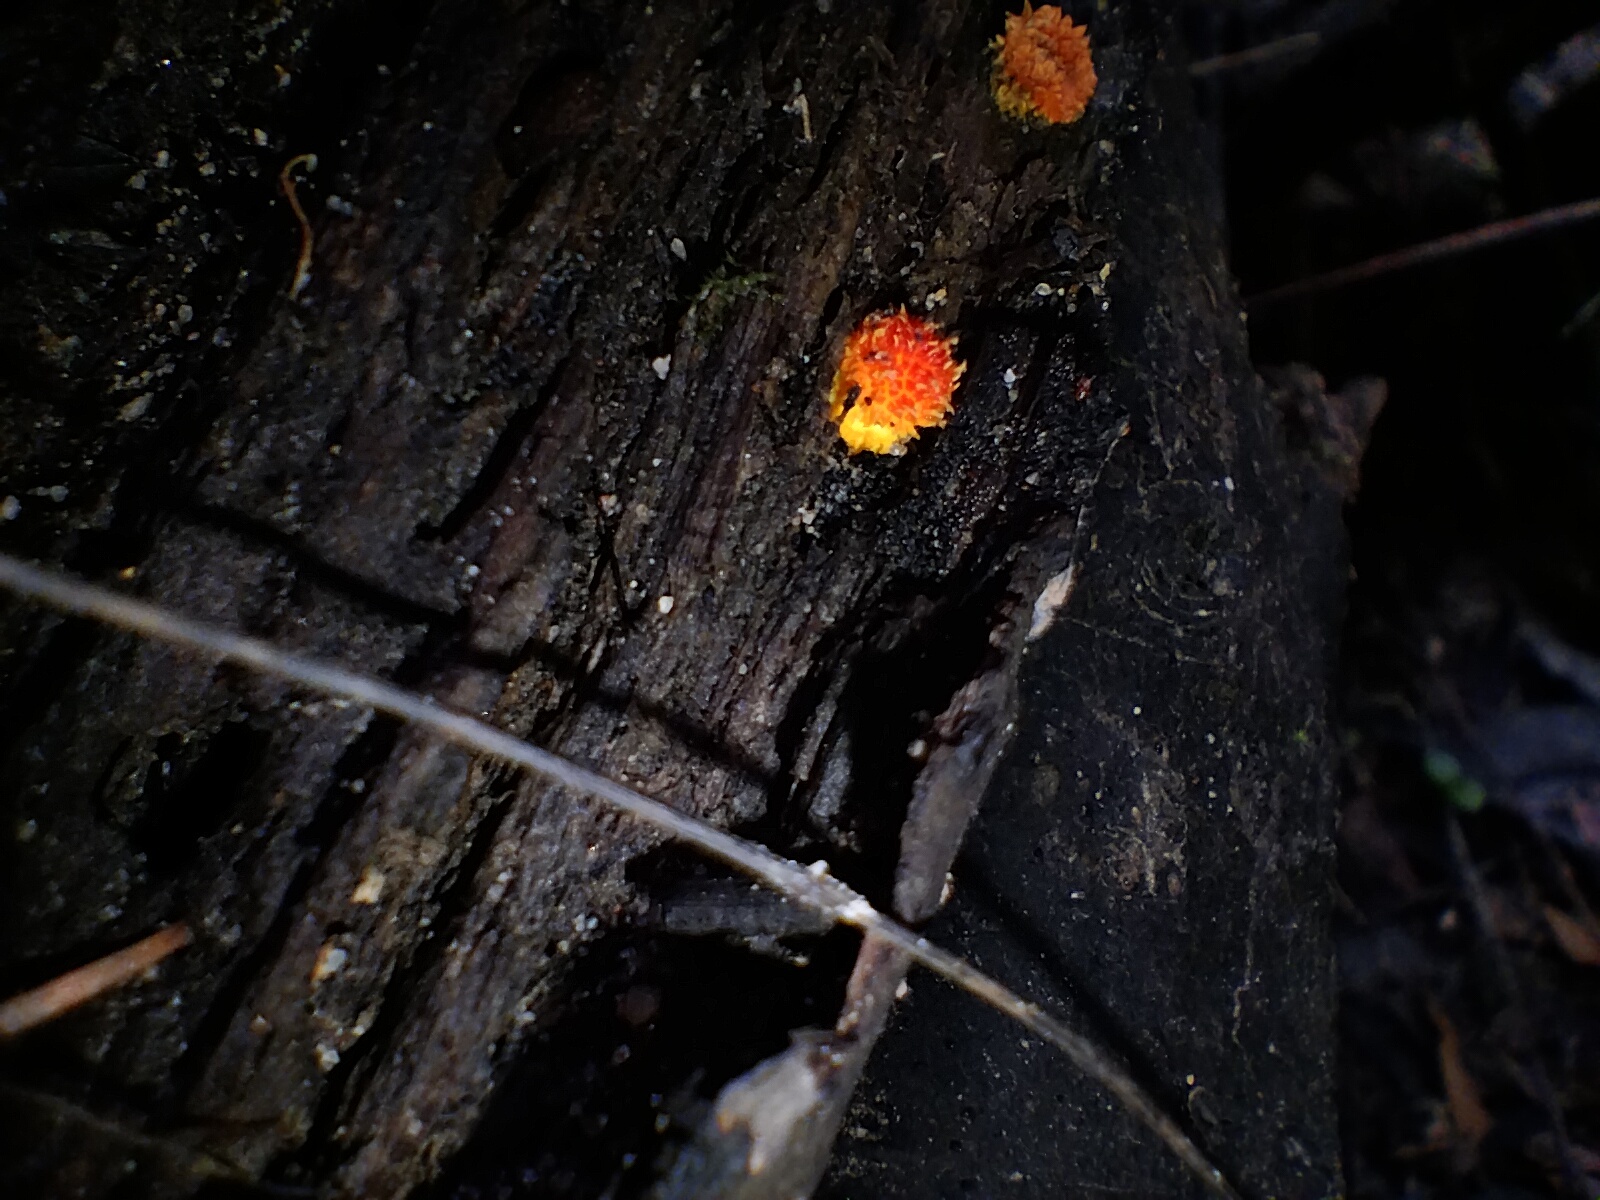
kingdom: Fungi
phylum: Basidiomycota
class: Agaricomycetes
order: Agaricales
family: Physalacriaceae
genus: Cyptotrama
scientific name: Cyptotrama asprata
